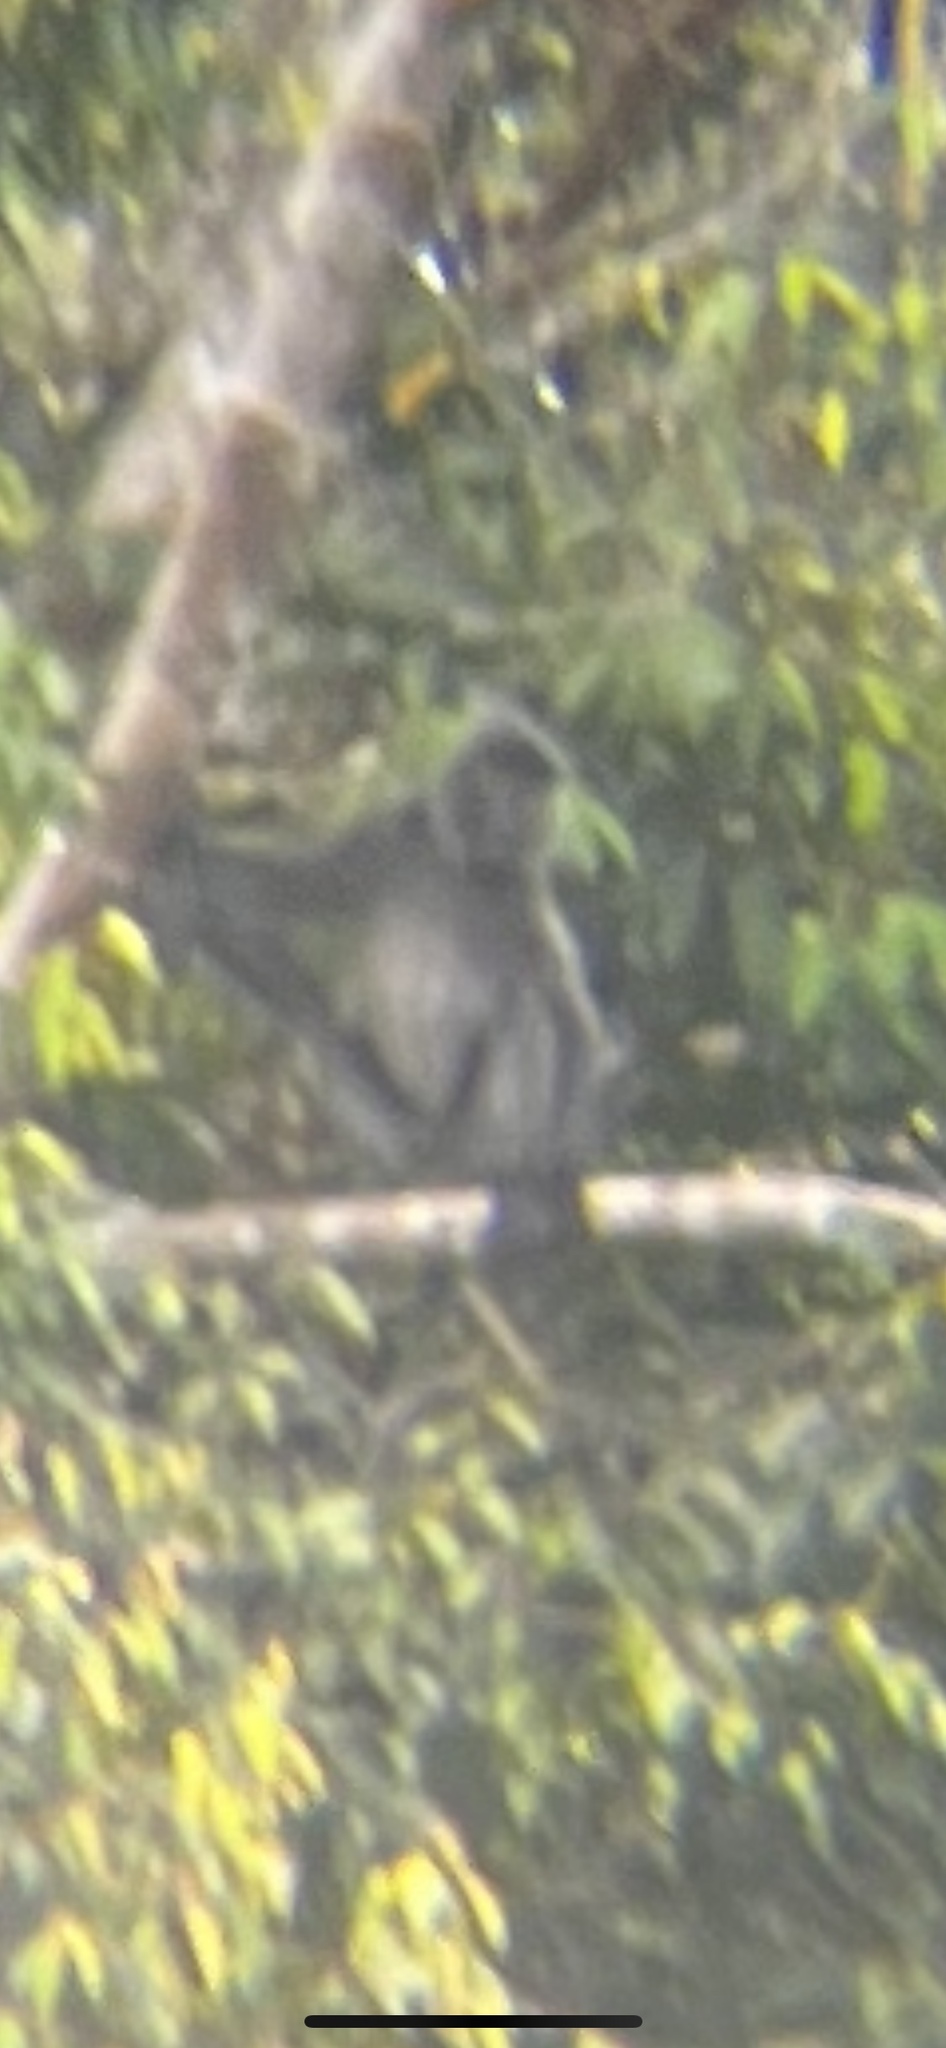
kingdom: Animalia
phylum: Chordata
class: Mammalia
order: Primates
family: Cercopithecidae
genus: Trachypithecus
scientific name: Trachypithecus cristatus
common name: Silvery lutung
